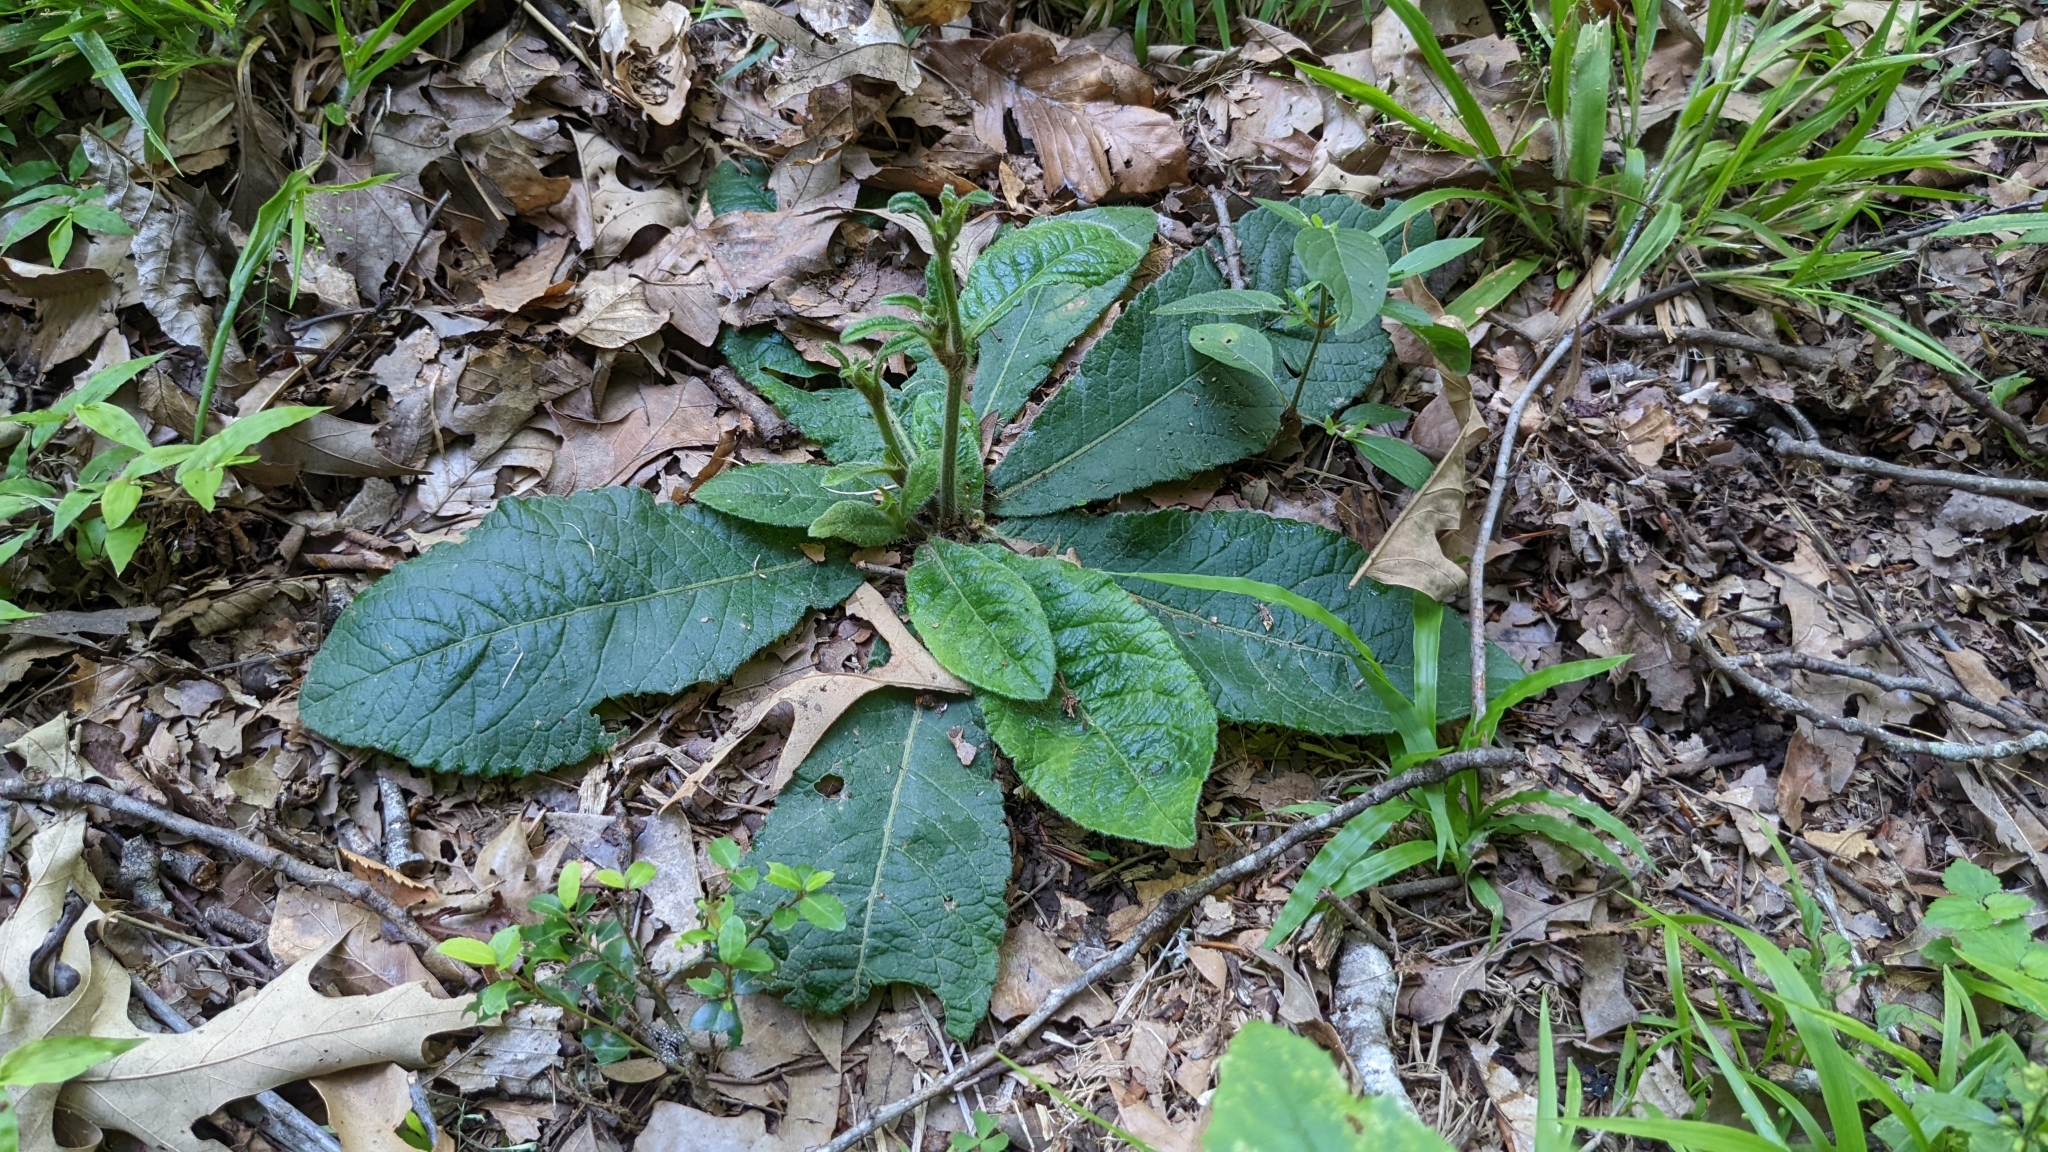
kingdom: Plantae
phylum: Tracheophyta
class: Magnoliopsida
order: Asterales
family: Asteraceae
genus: Elephantopus
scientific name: Elephantopus carolinianus
